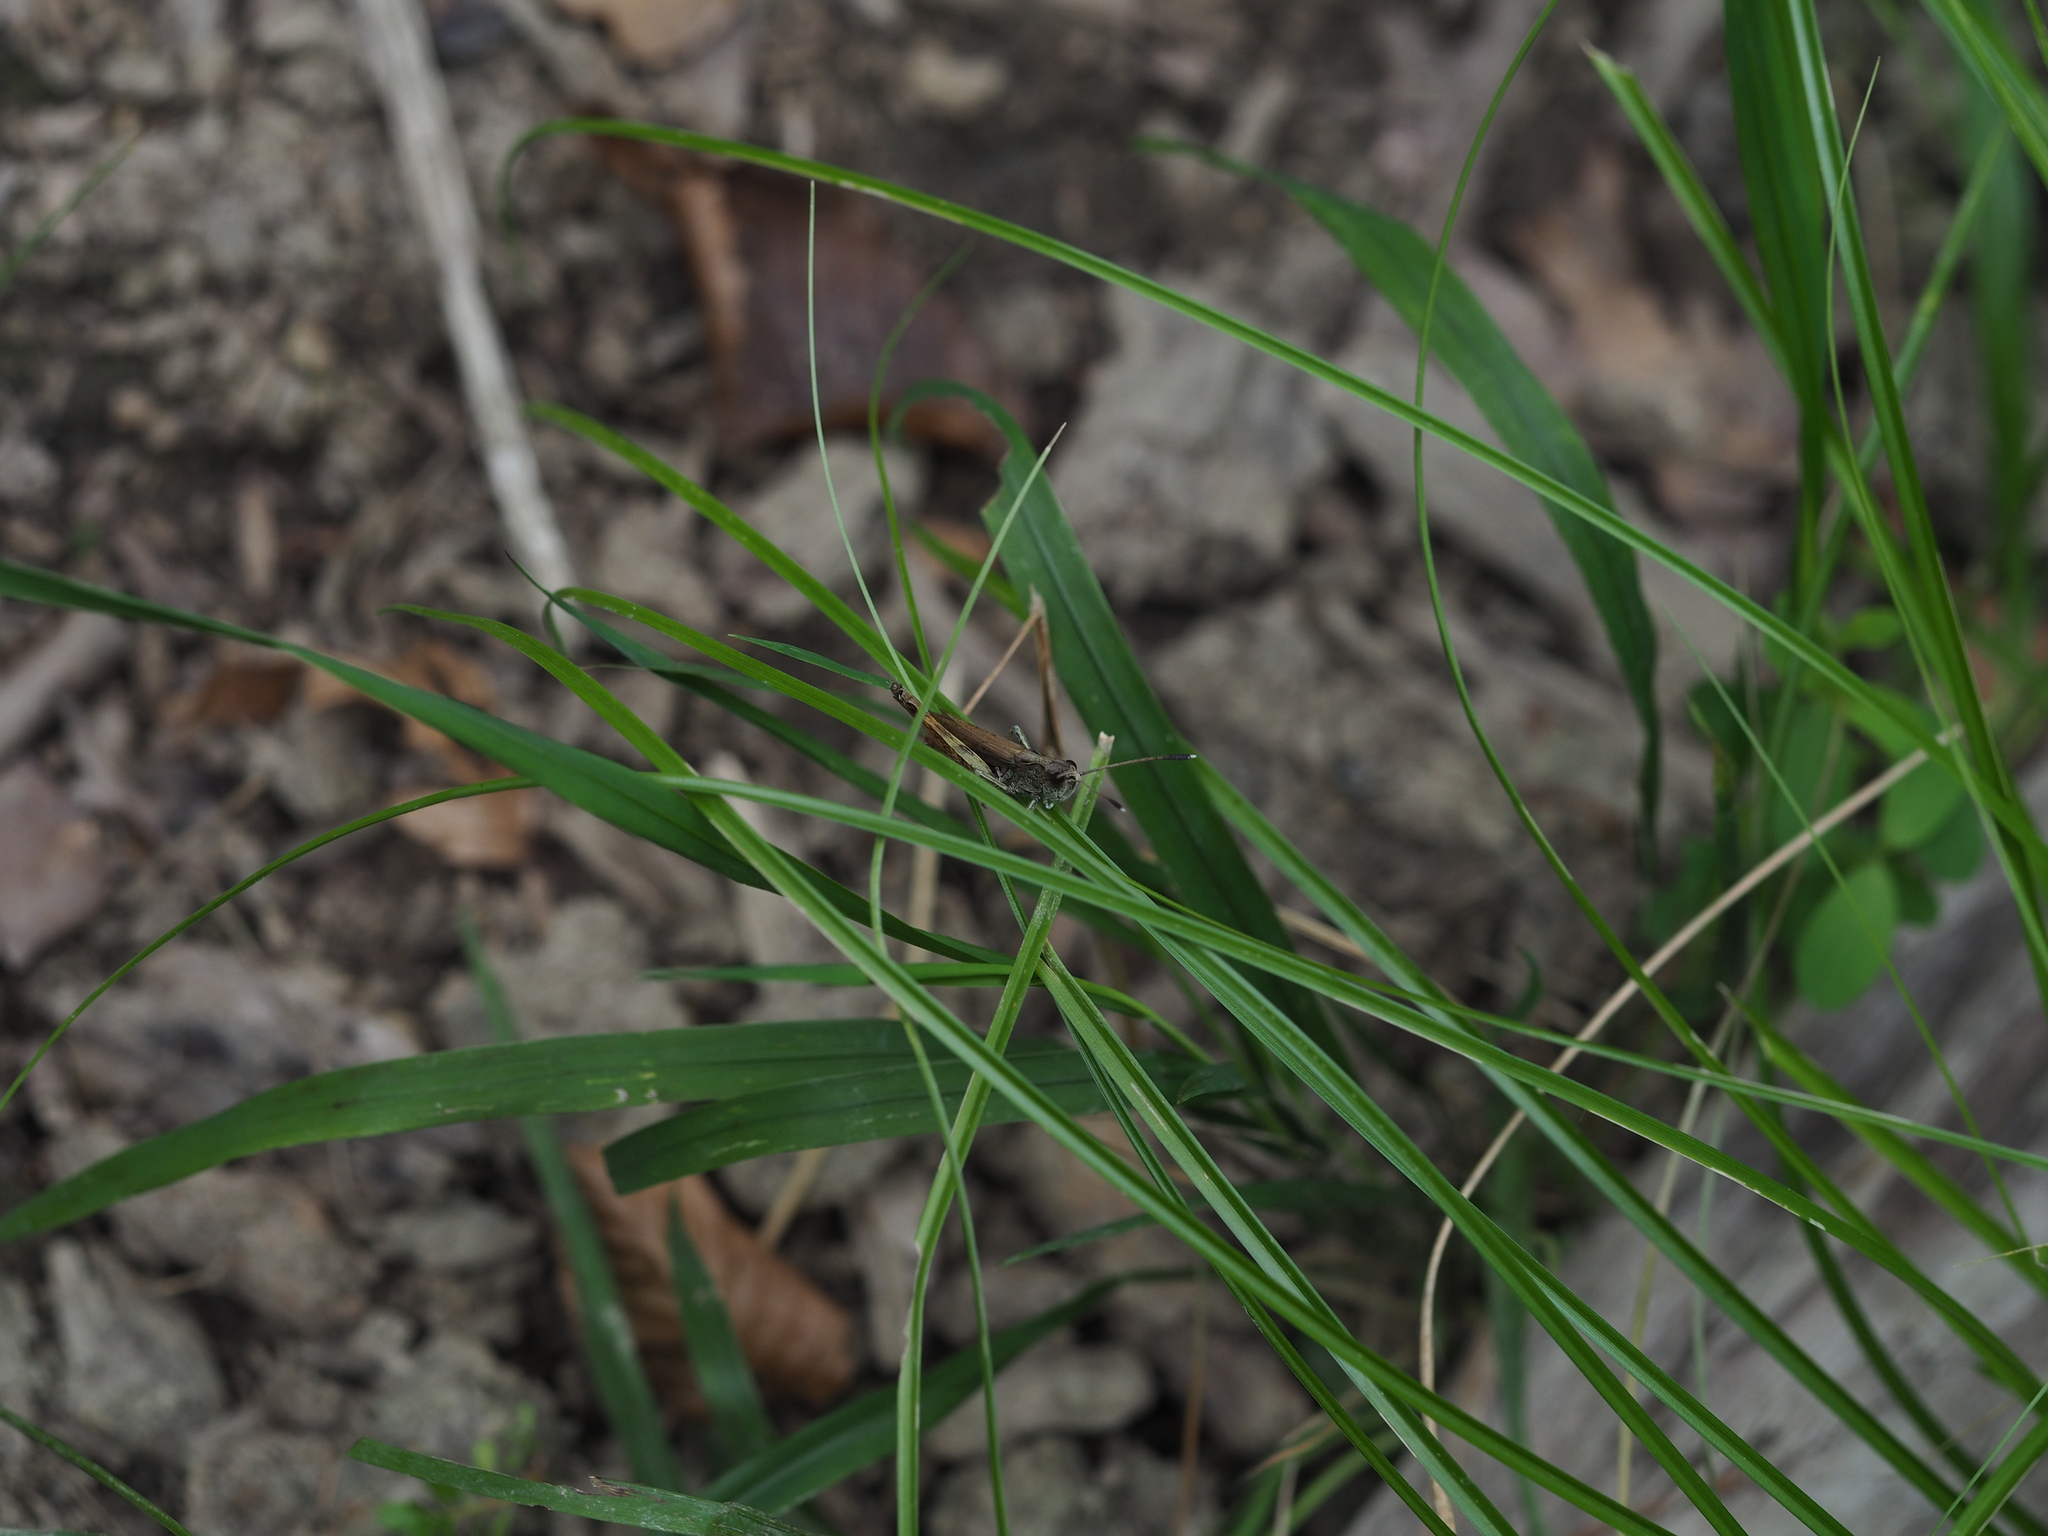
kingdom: Animalia
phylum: Arthropoda
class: Insecta
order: Orthoptera
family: Acrididae
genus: Gomphocerippus
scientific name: Gomphocerippus rufus
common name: Rufous grasshopper
